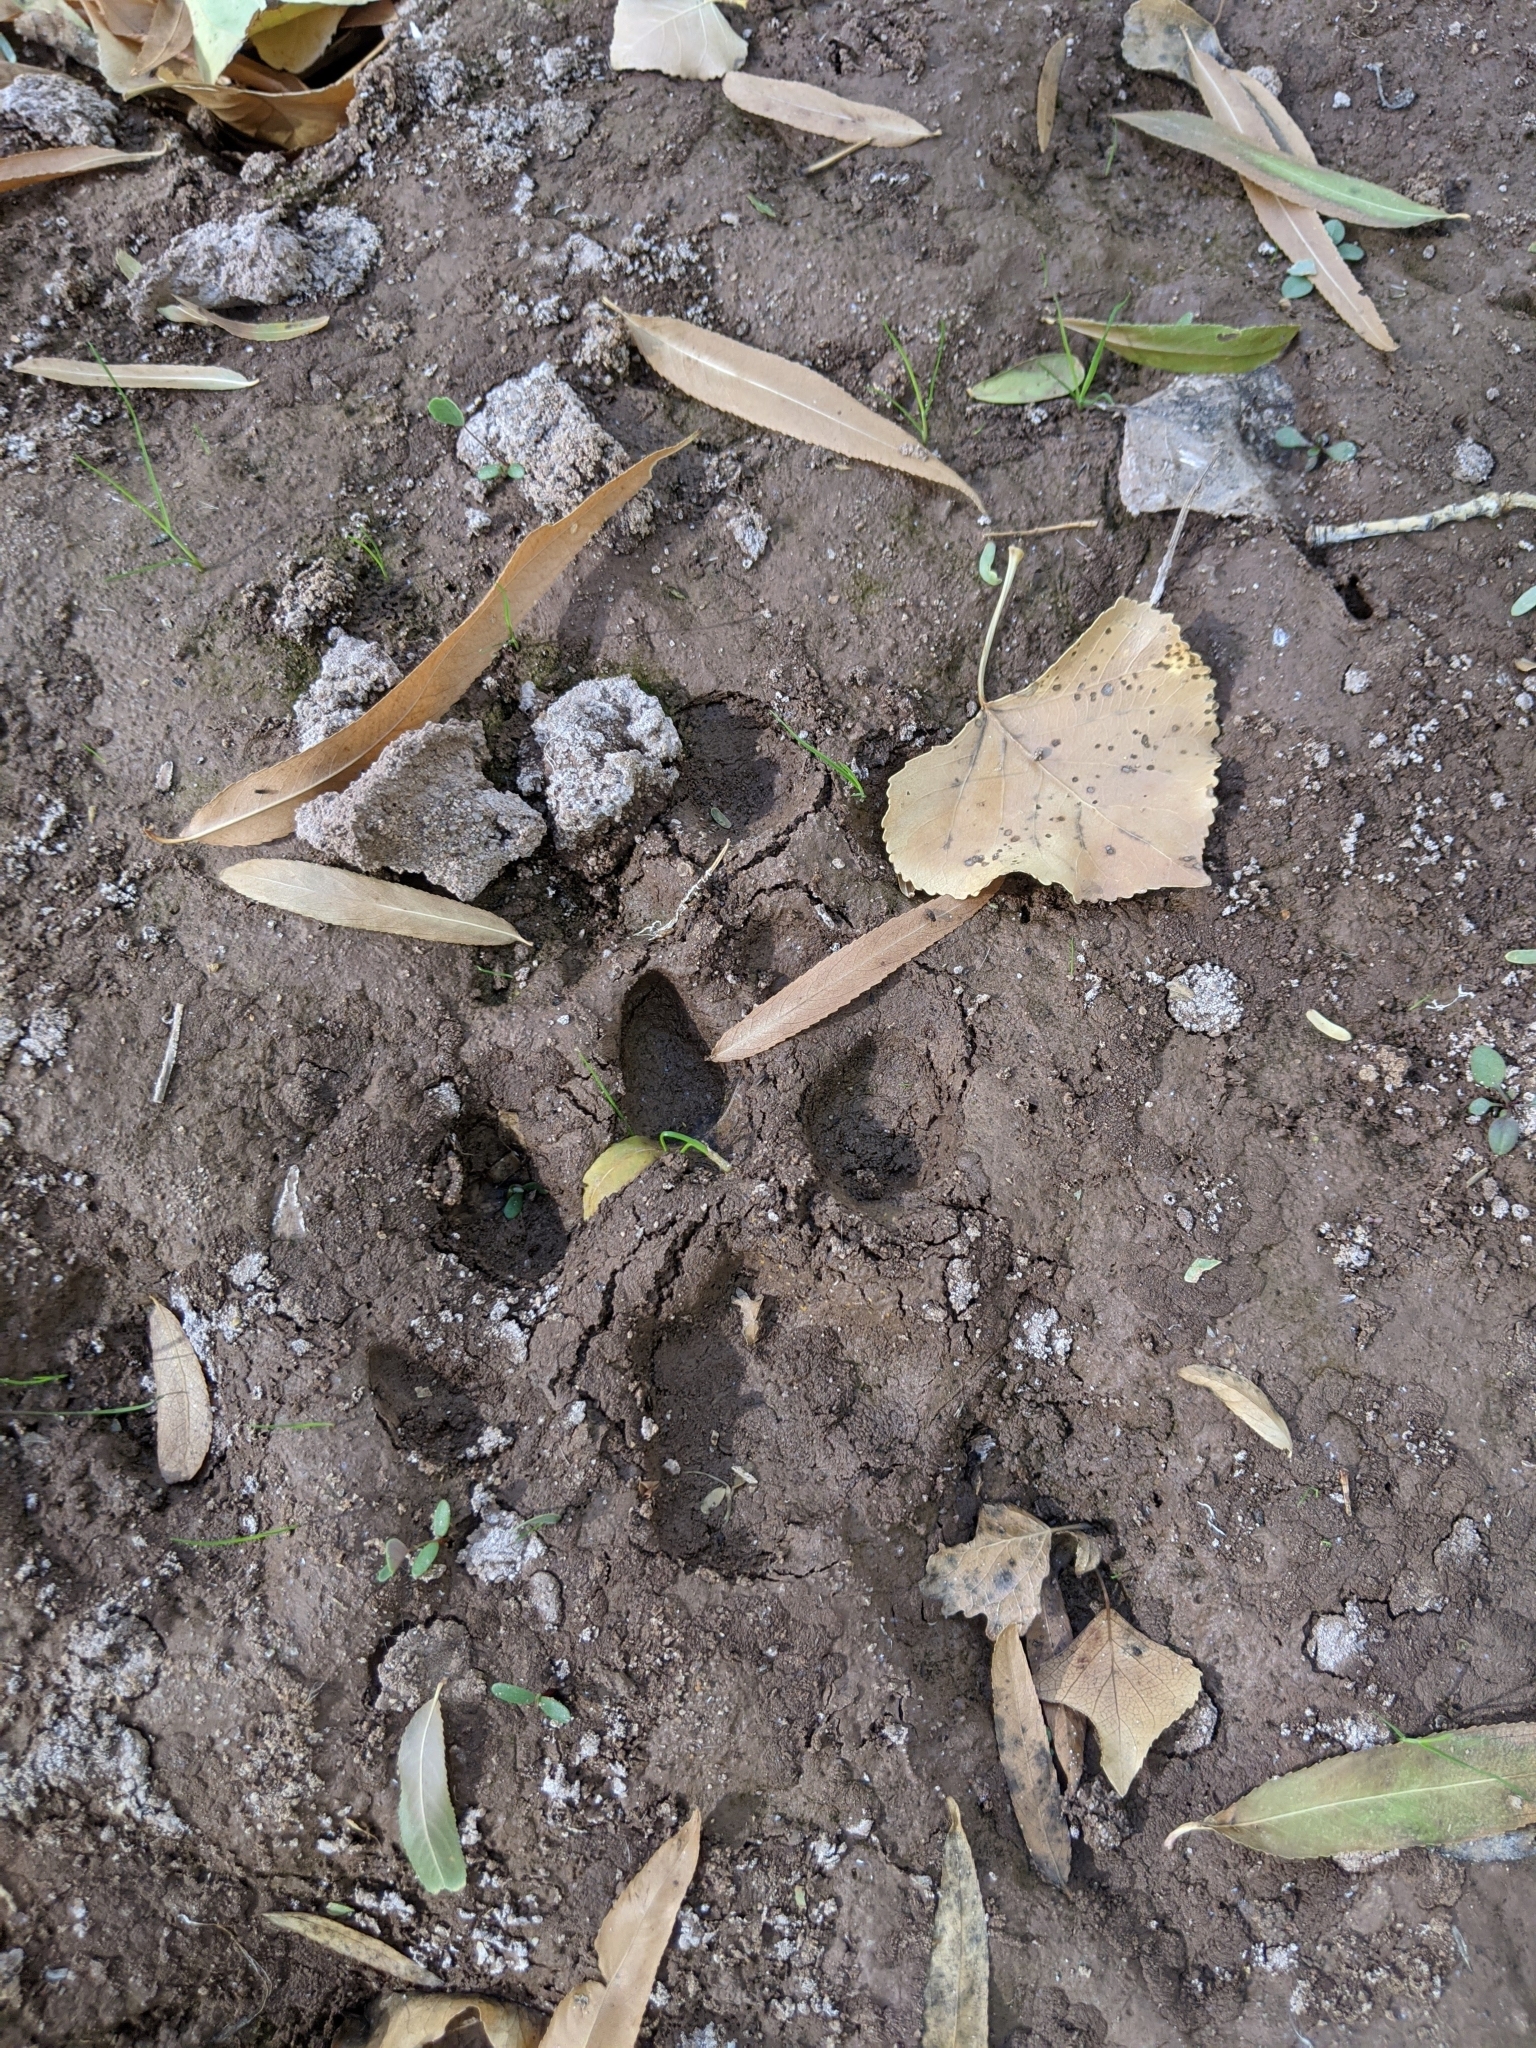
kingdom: Animalia
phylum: Chordata
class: Mammalia
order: Carnivora
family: Felidae
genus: Puma
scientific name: Puma concolor
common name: Puma
